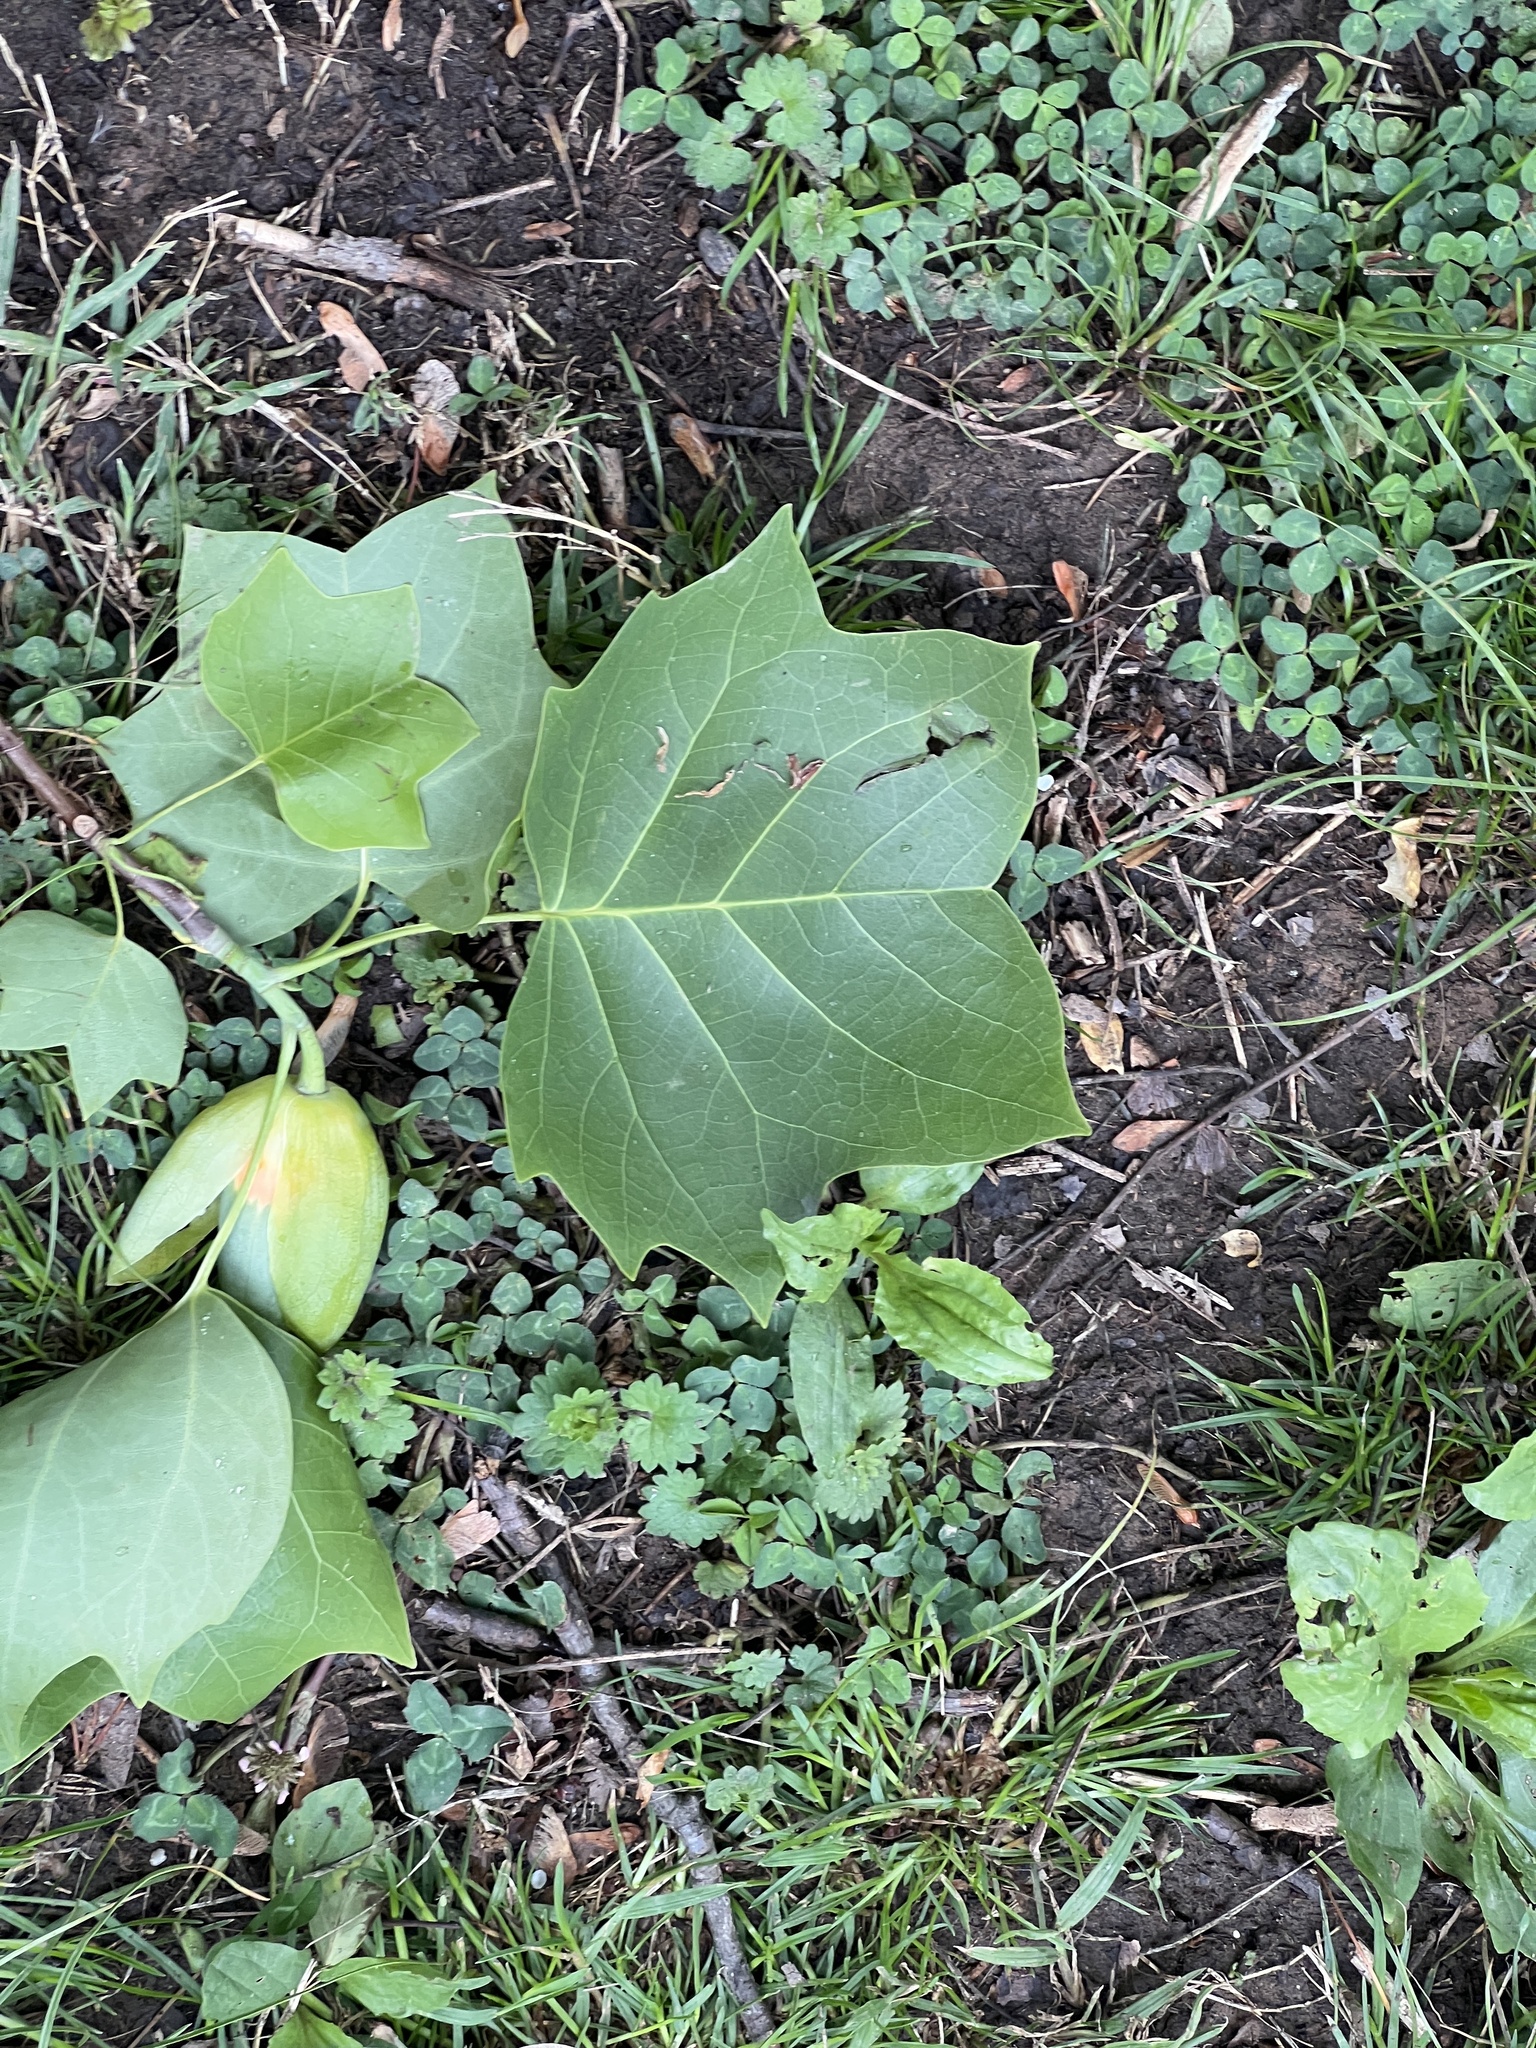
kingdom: Plantae
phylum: Tracheophyta
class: Magnoliopsida
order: Magnoliales
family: Magnoliaceae
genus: Liriodendron
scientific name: Liriodendron tulipifera
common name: Tulip tree
